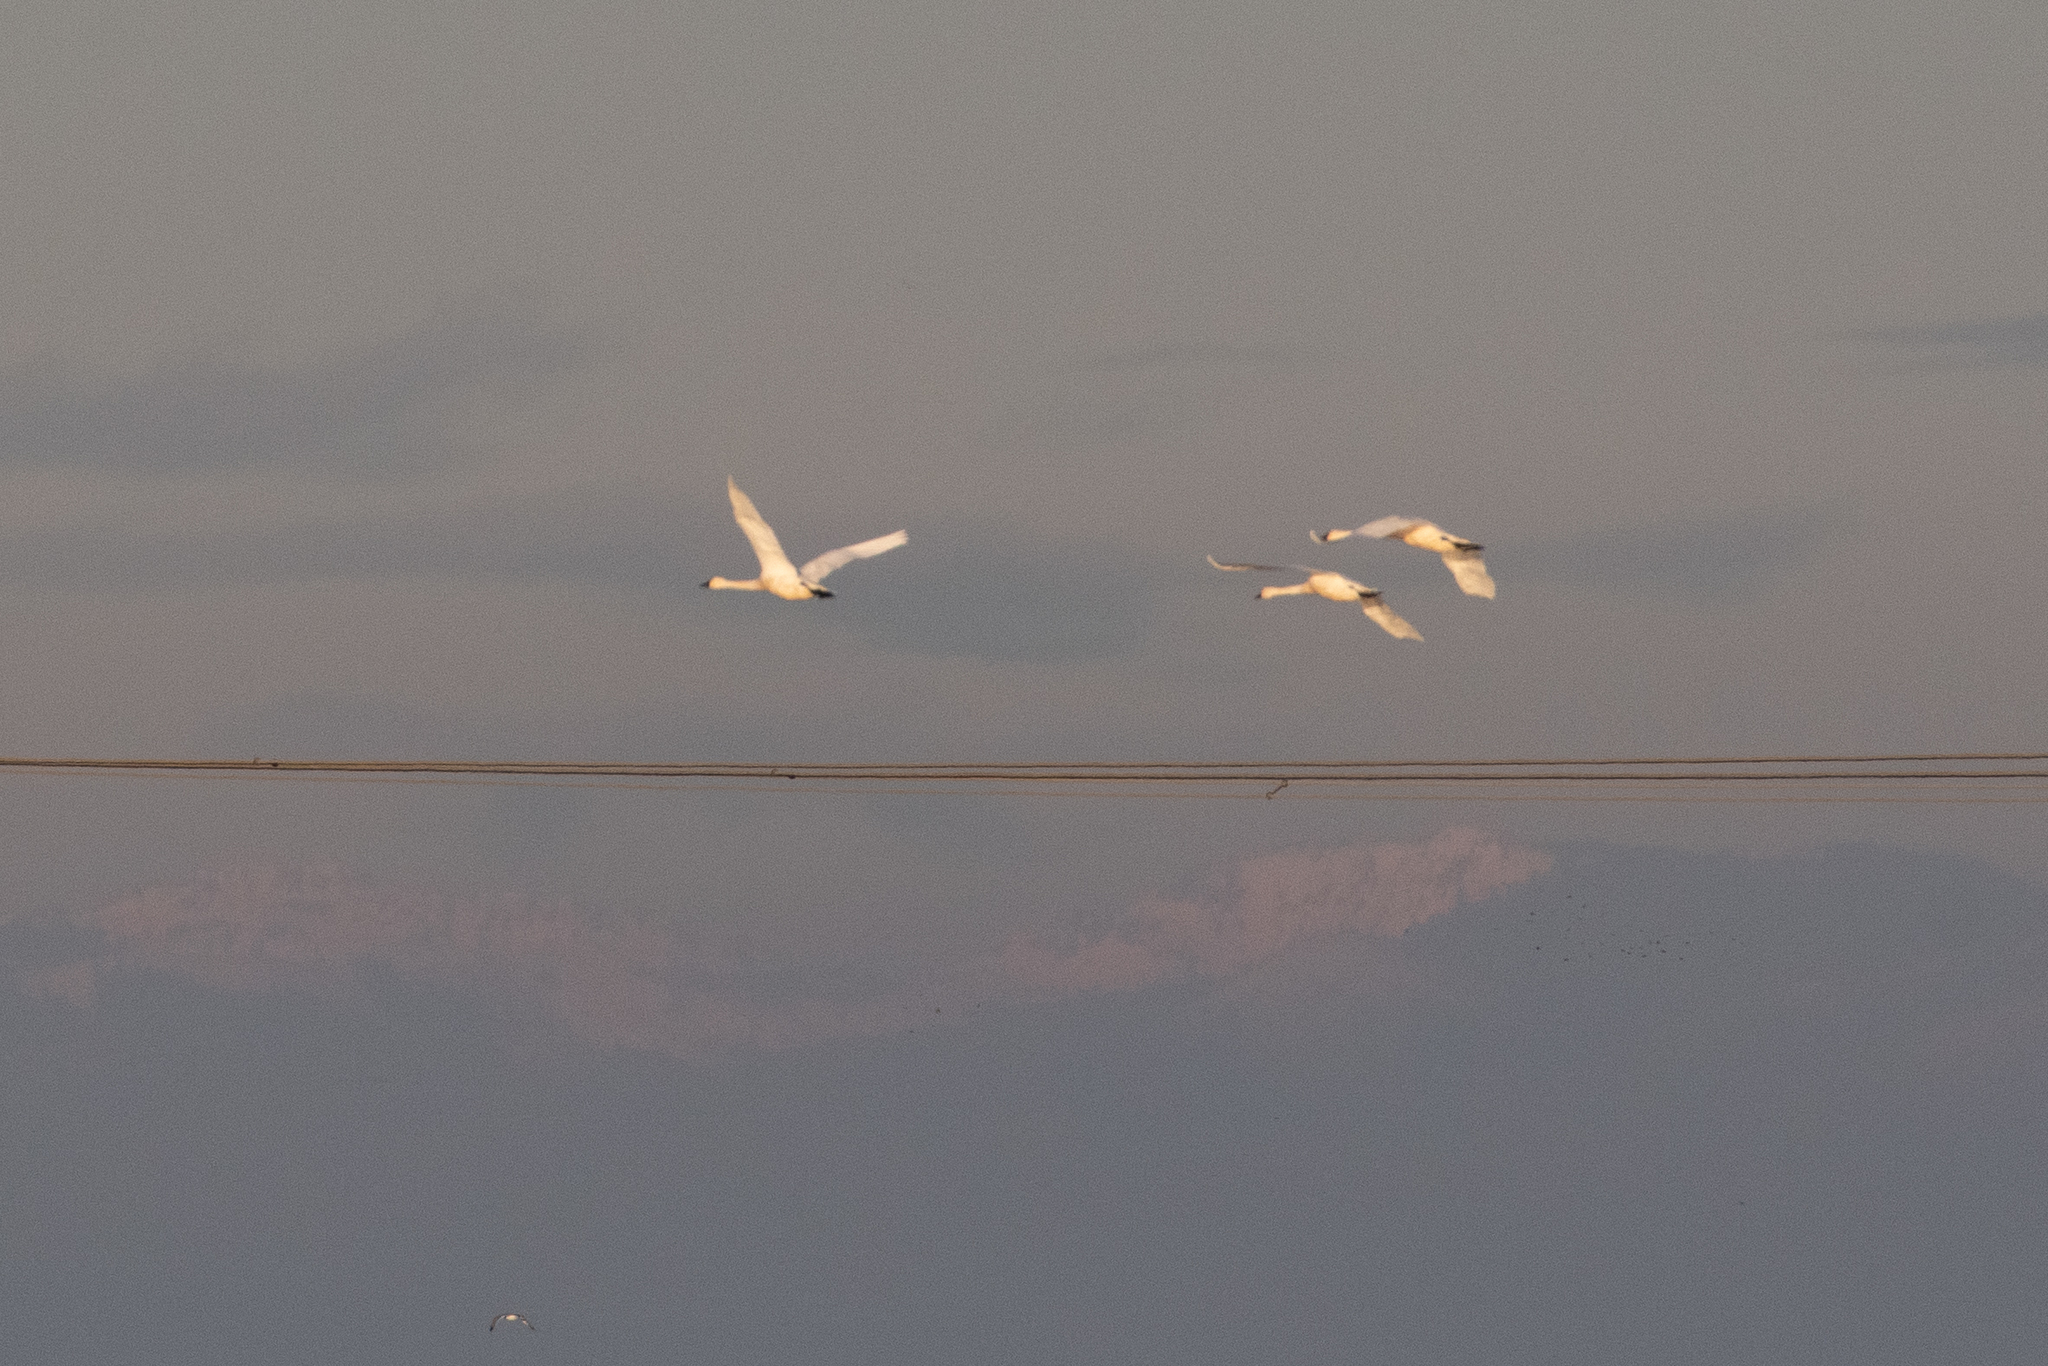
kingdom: Animalia
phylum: Chordata
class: Aves
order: Anseriformes
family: Anatidae
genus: Cygnus
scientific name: Cygnus columbianus
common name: Tundra swan
